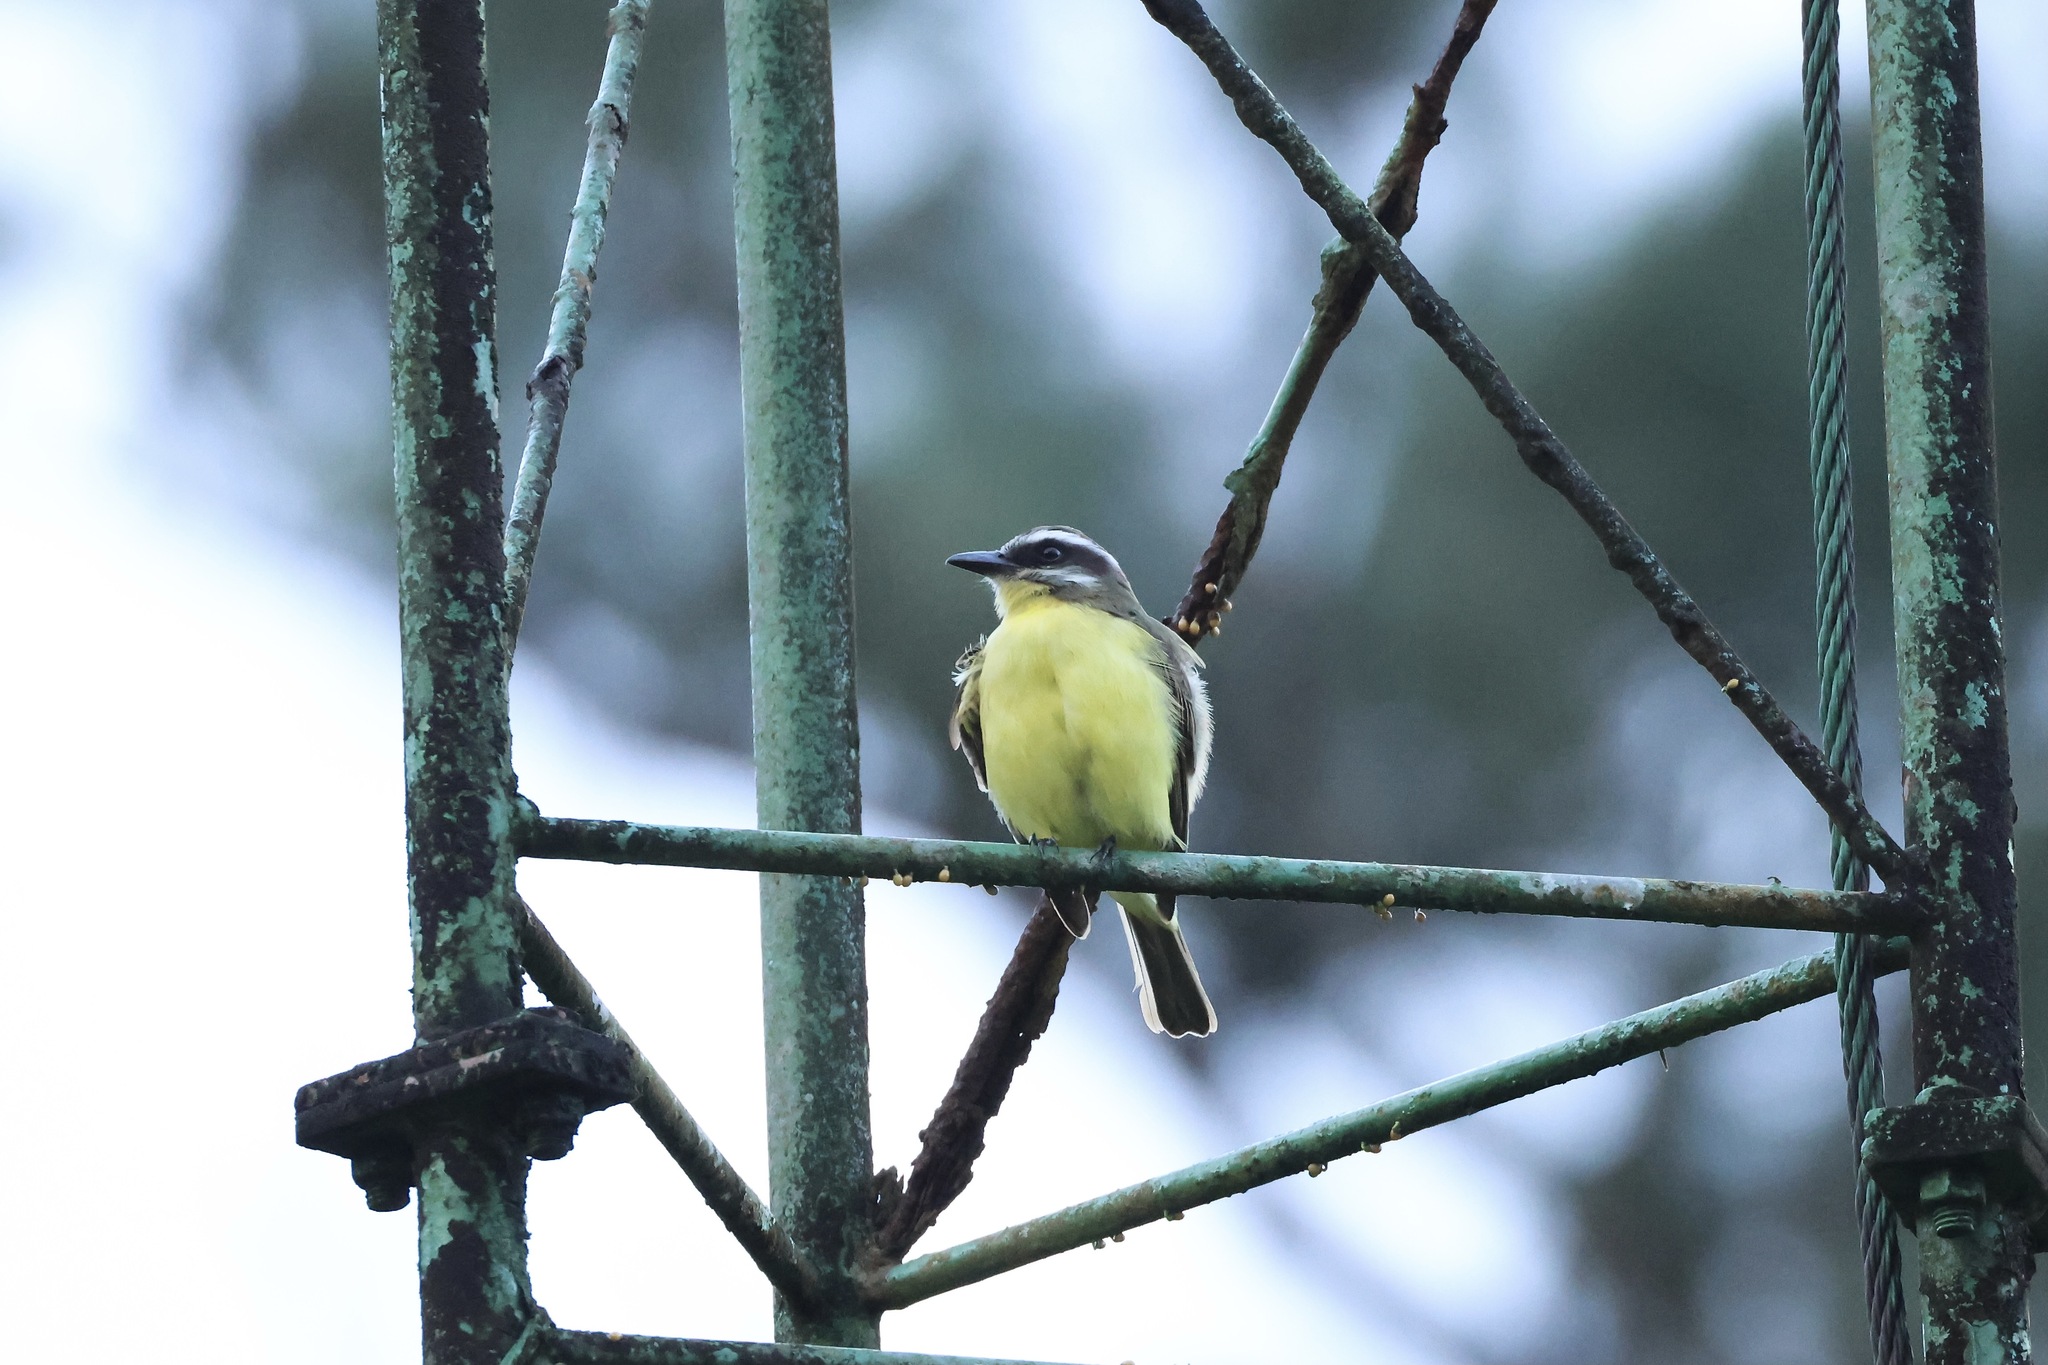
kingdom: Animalia
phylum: Chordata
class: Aves
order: Passeriformes
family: Tyrannidae
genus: Myiodynastes
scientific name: Myiodynastes hemichrysus
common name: Golden-bellied flycatcher
